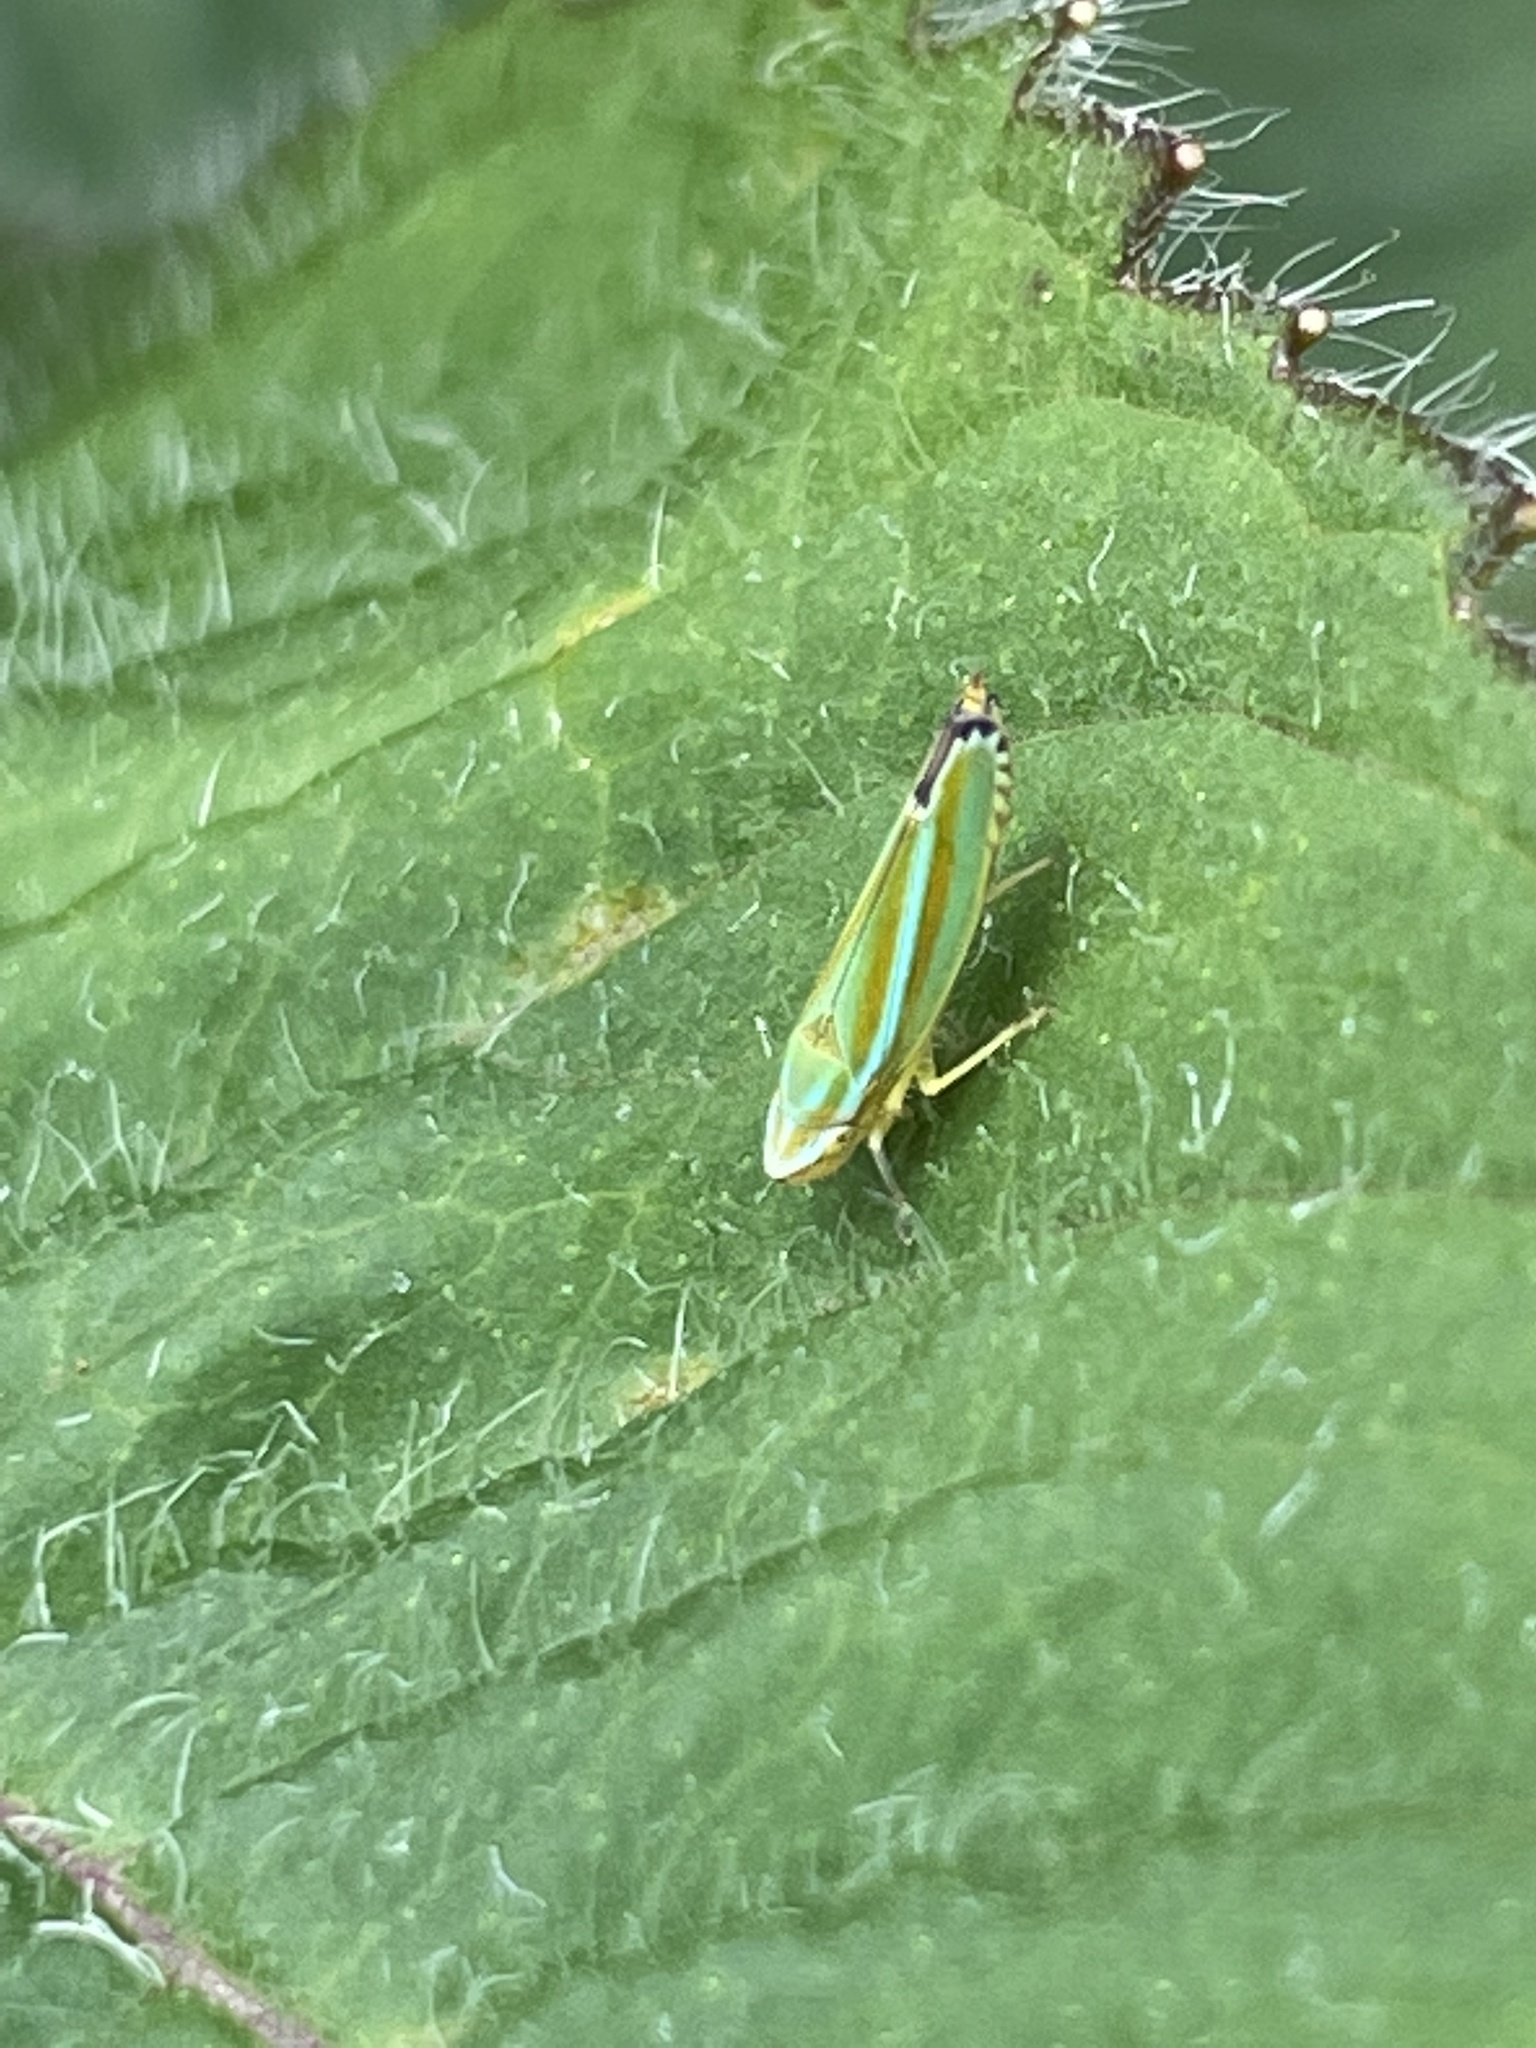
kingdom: Animalia
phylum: Arthropoda
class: Insecta
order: Hemiptera
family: Cicadellidae
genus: Graphocephala
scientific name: Graphocephala versuta
